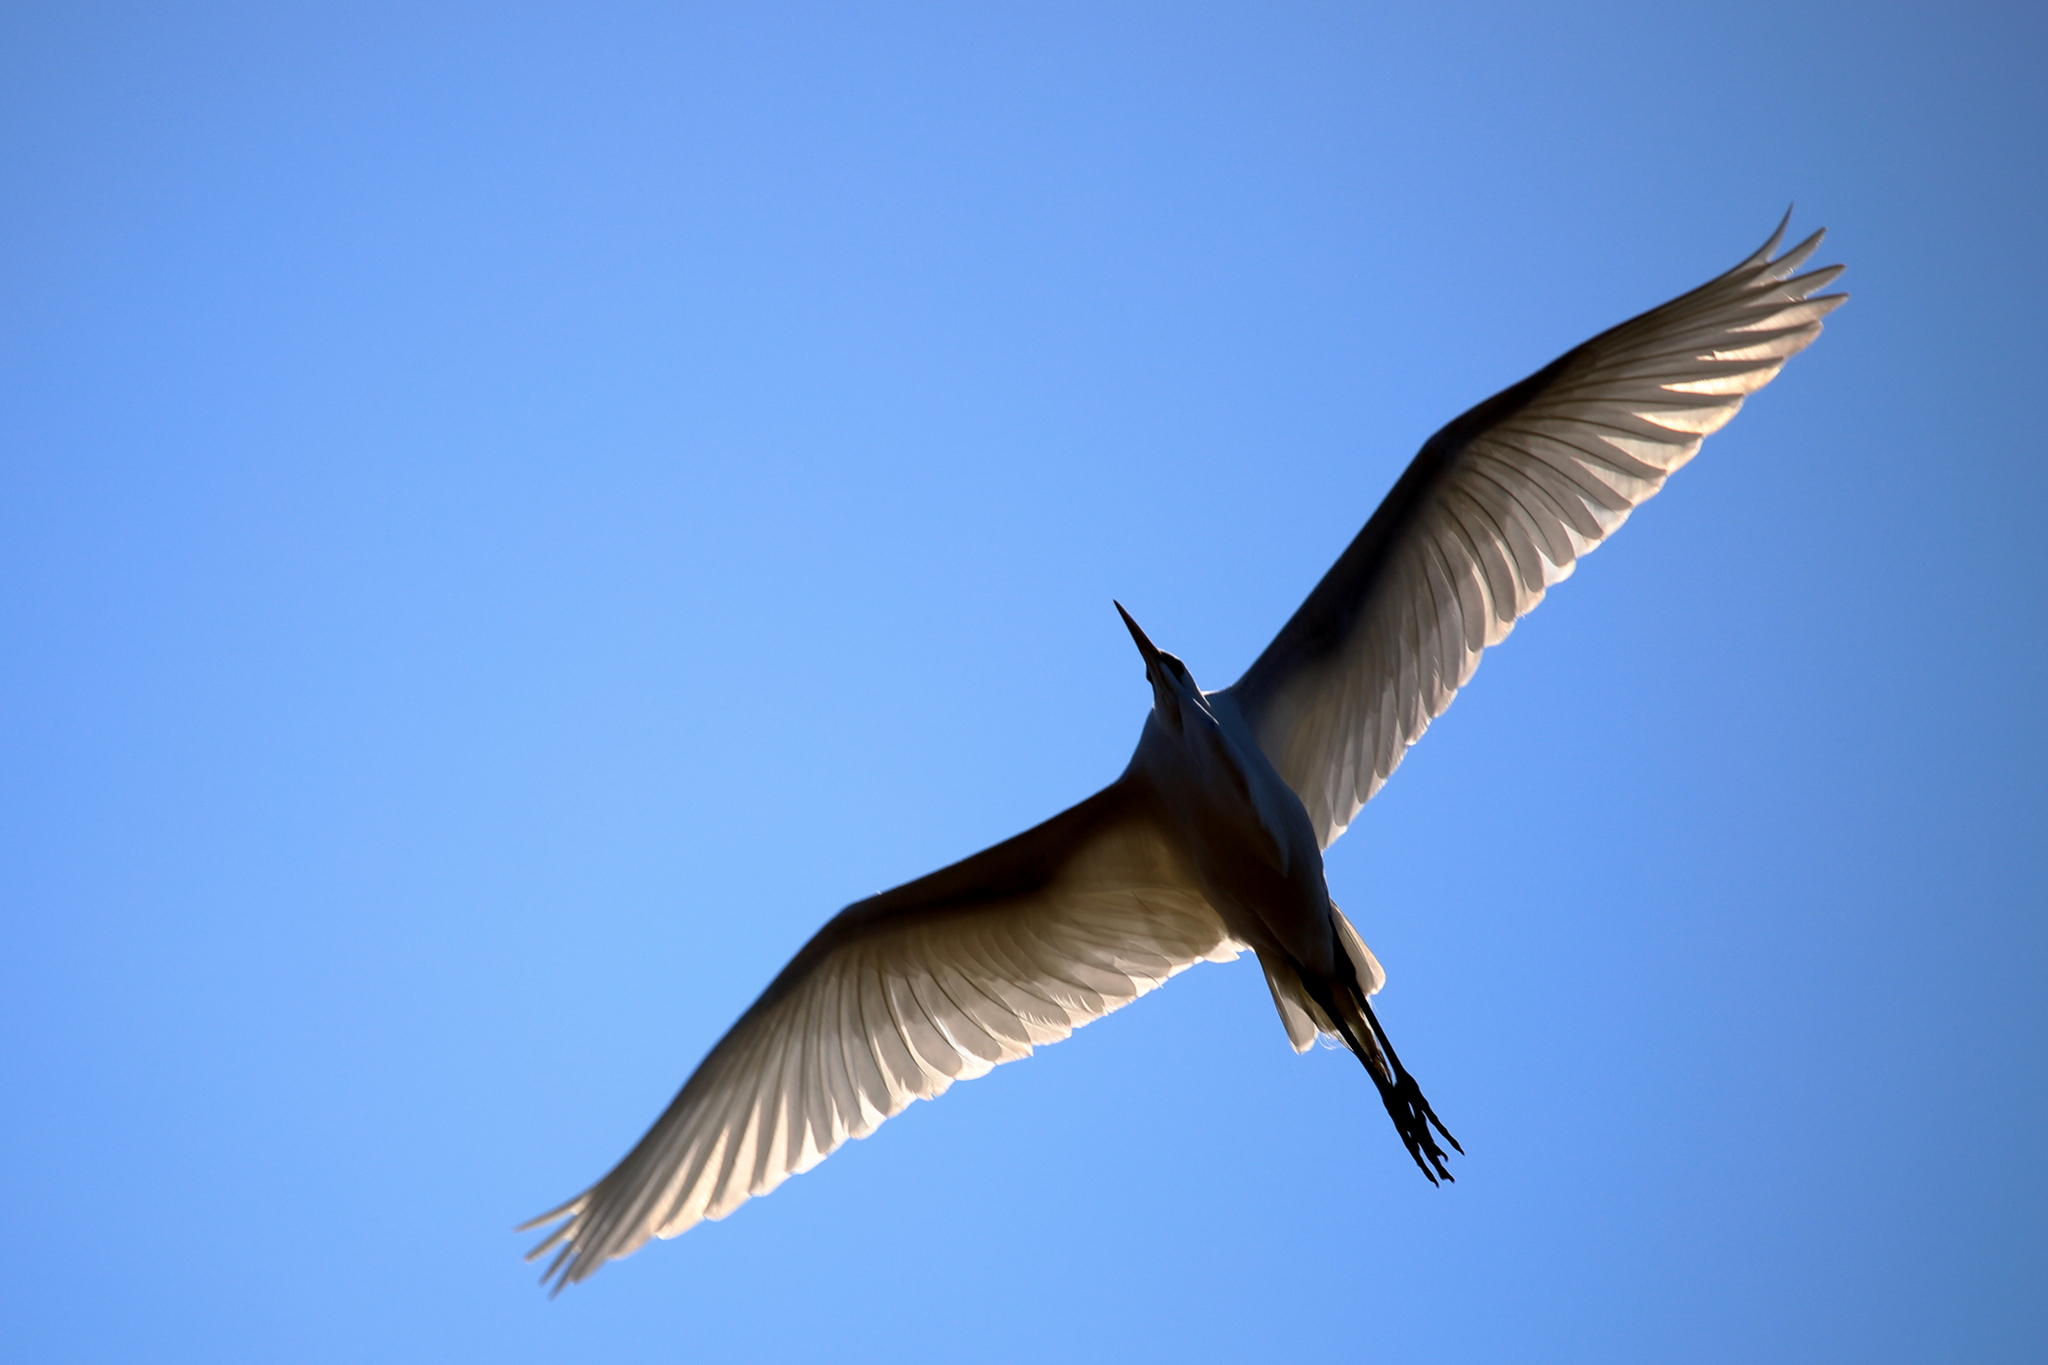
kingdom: Animalia
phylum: Chordata
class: Aves
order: Pelecaniformes
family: Ardeidae
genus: Ardea
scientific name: Ardea alba
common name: Great egret
